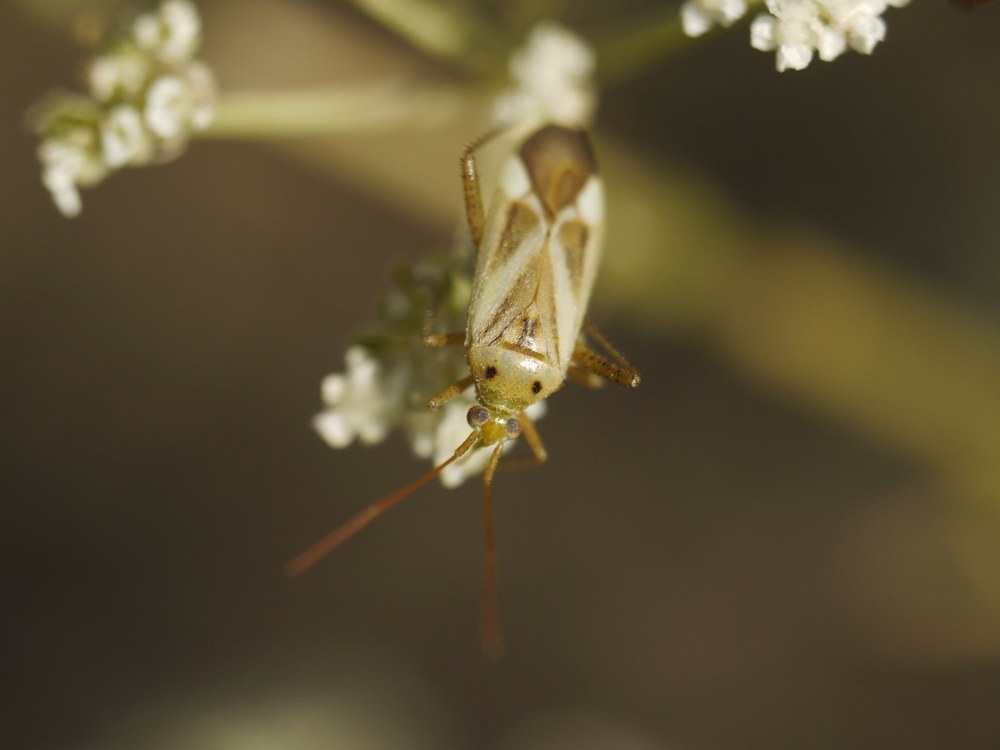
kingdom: Animalia
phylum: Arthropoda
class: Insecta
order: Hemiptera
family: Miridae
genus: Adelphocoris
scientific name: Adelphocoris lineolatus
